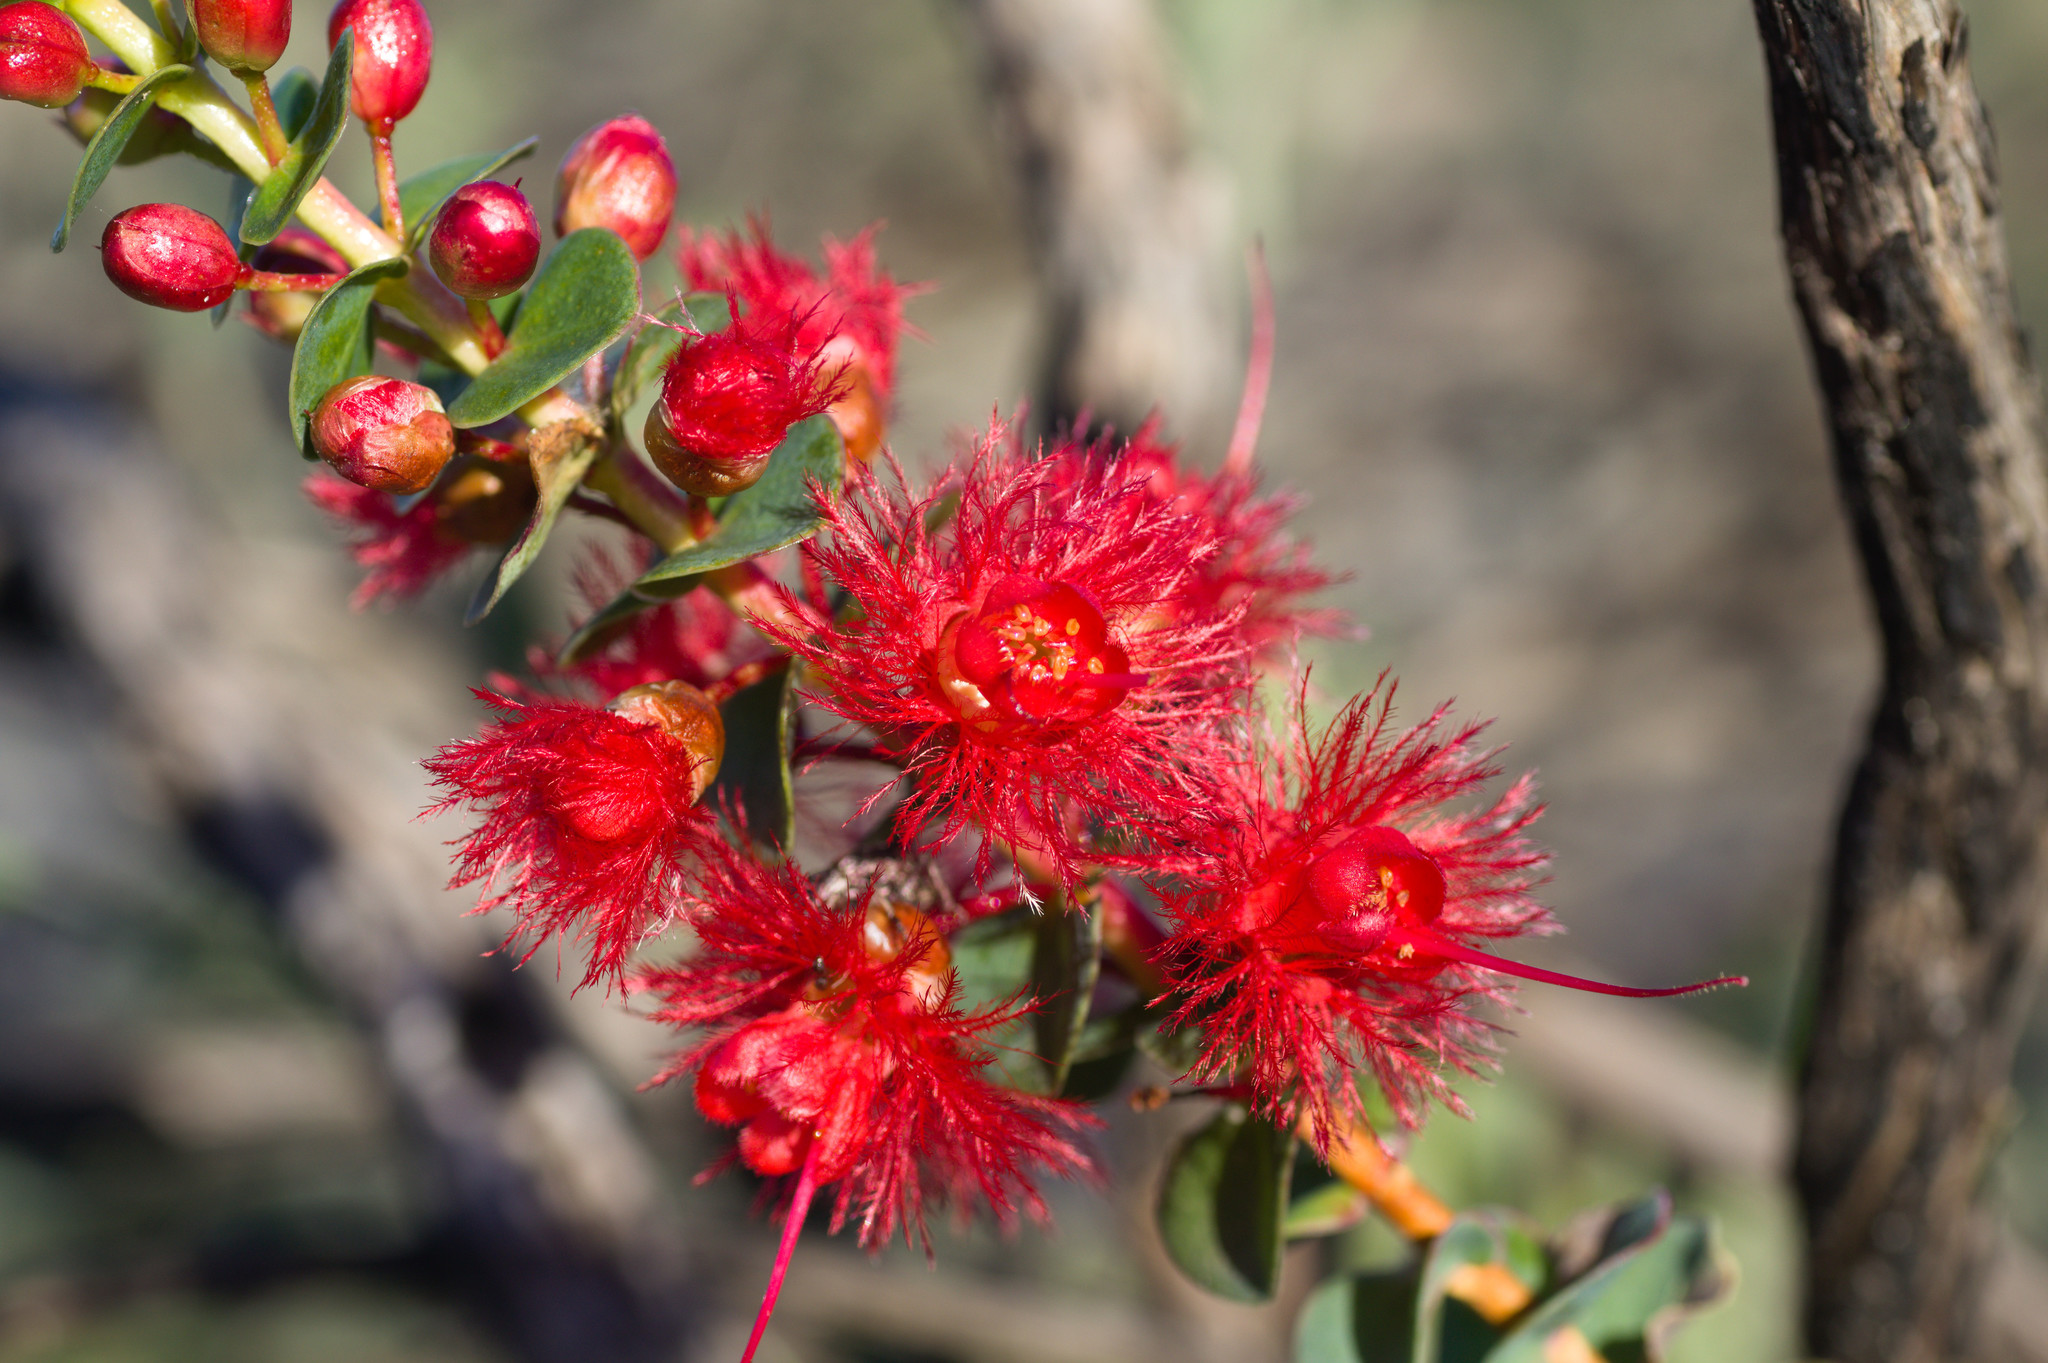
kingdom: Plantae
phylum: Tracheophyta
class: Magnoliopsida
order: Myrtales
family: Myrtaceae
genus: Verticordia
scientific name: Verticordia grandis
